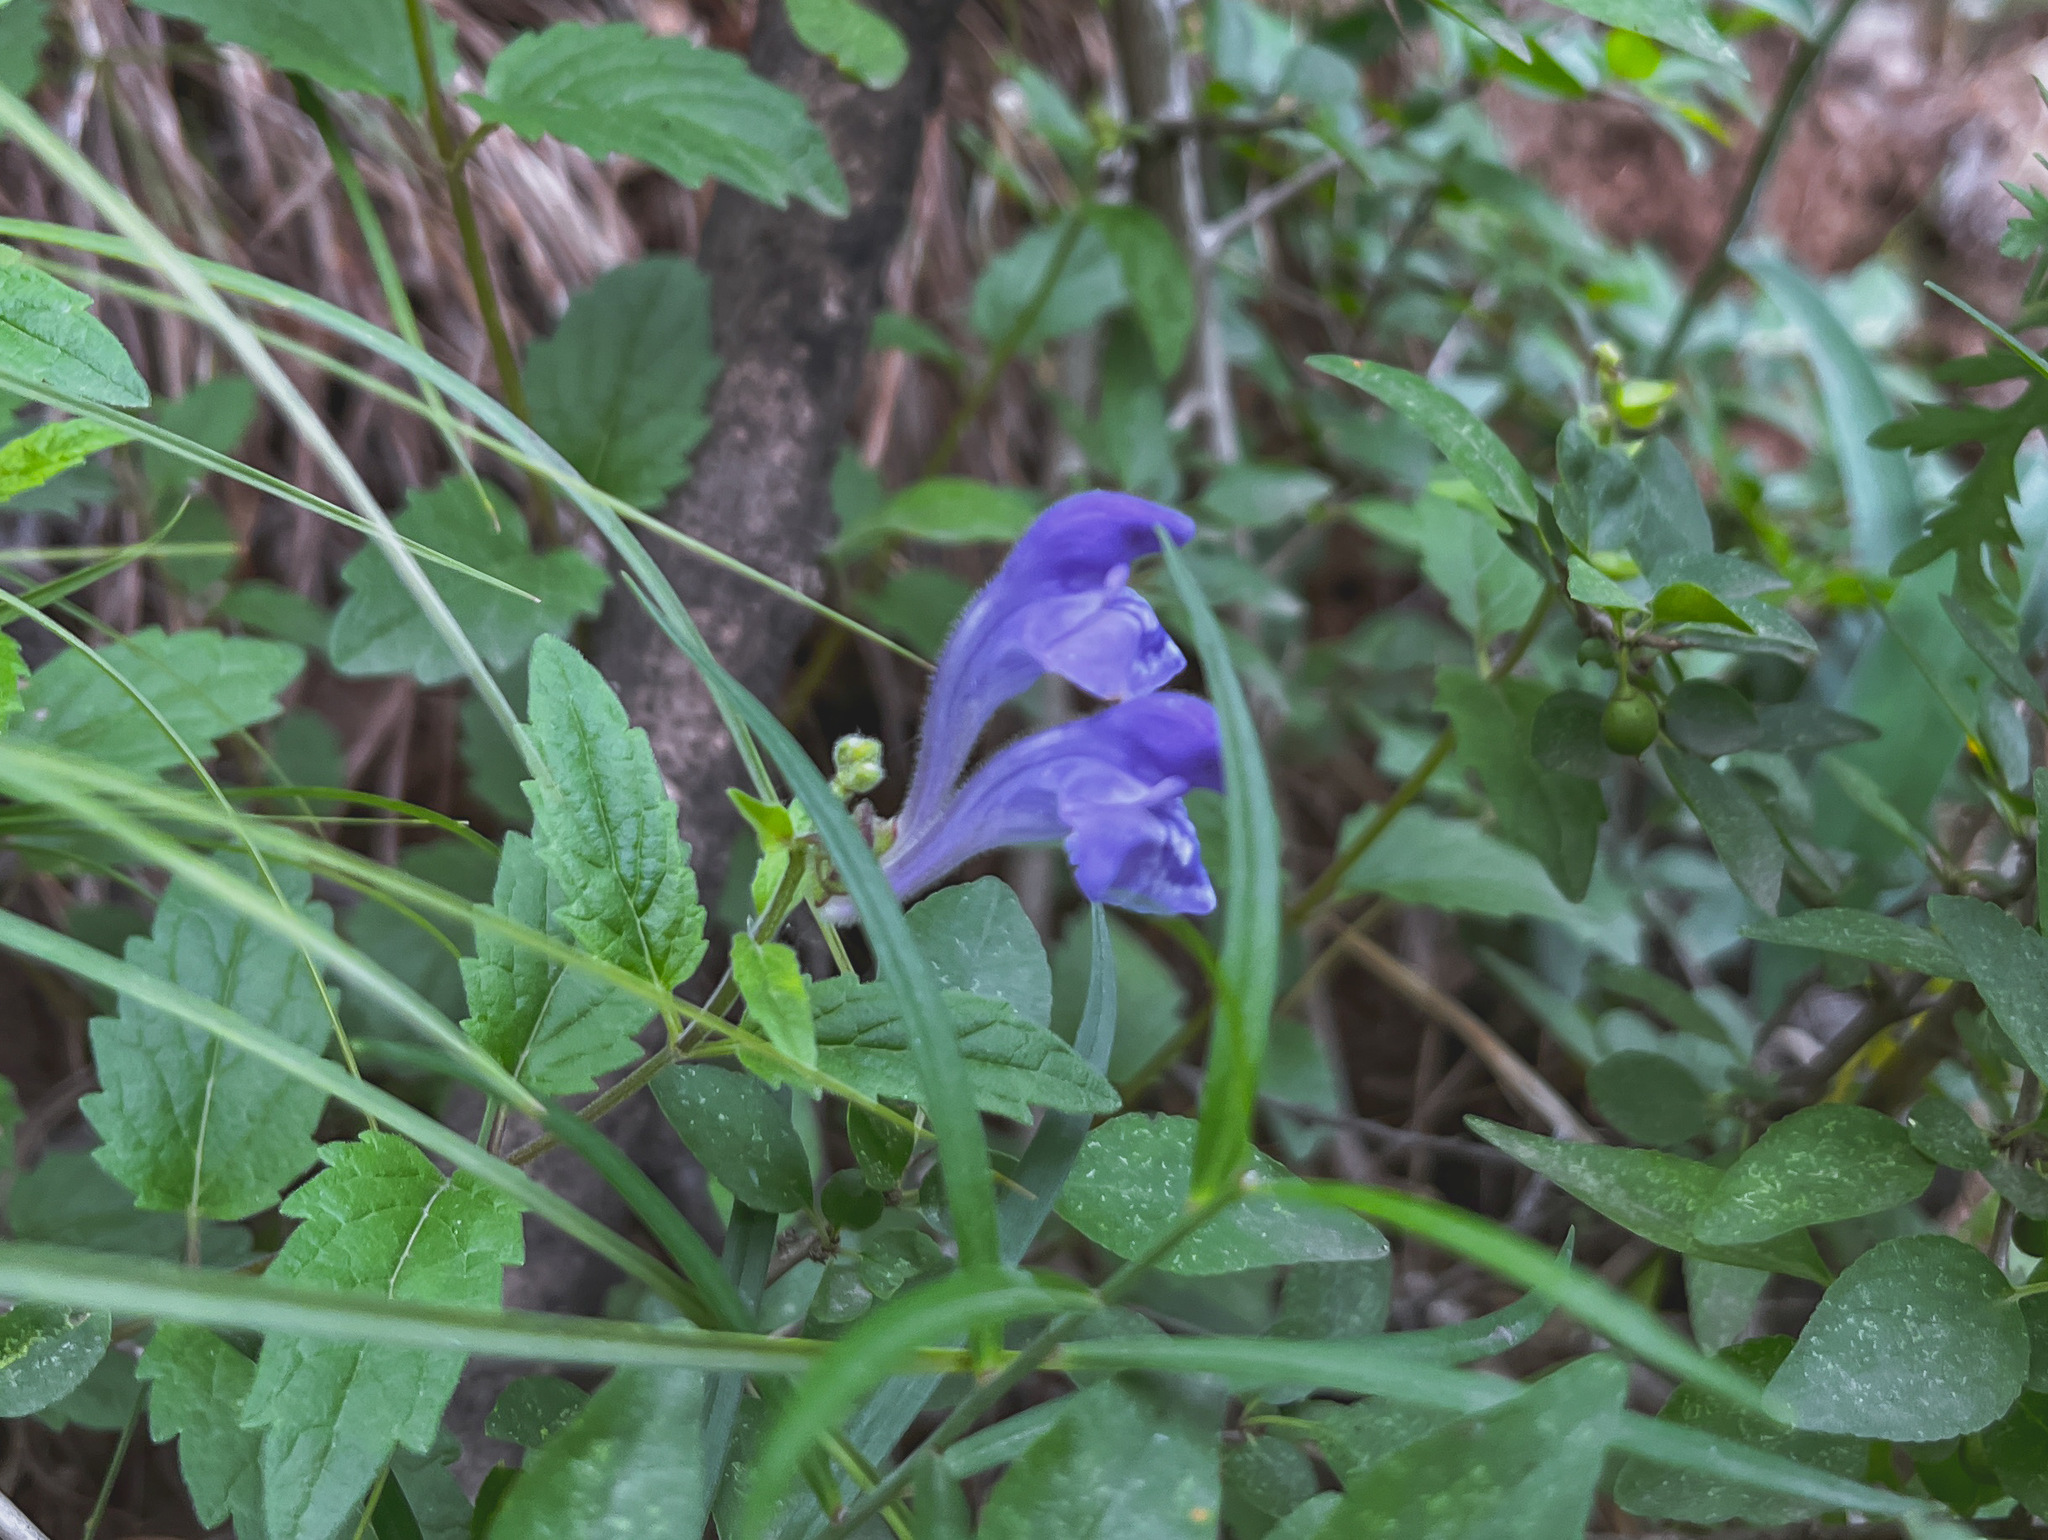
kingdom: Plantae
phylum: Tracheophyta
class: Magnoliopsida
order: Lamiales
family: Lamiaceae
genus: Scutellaria
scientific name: Scutellaria scordiifolia
